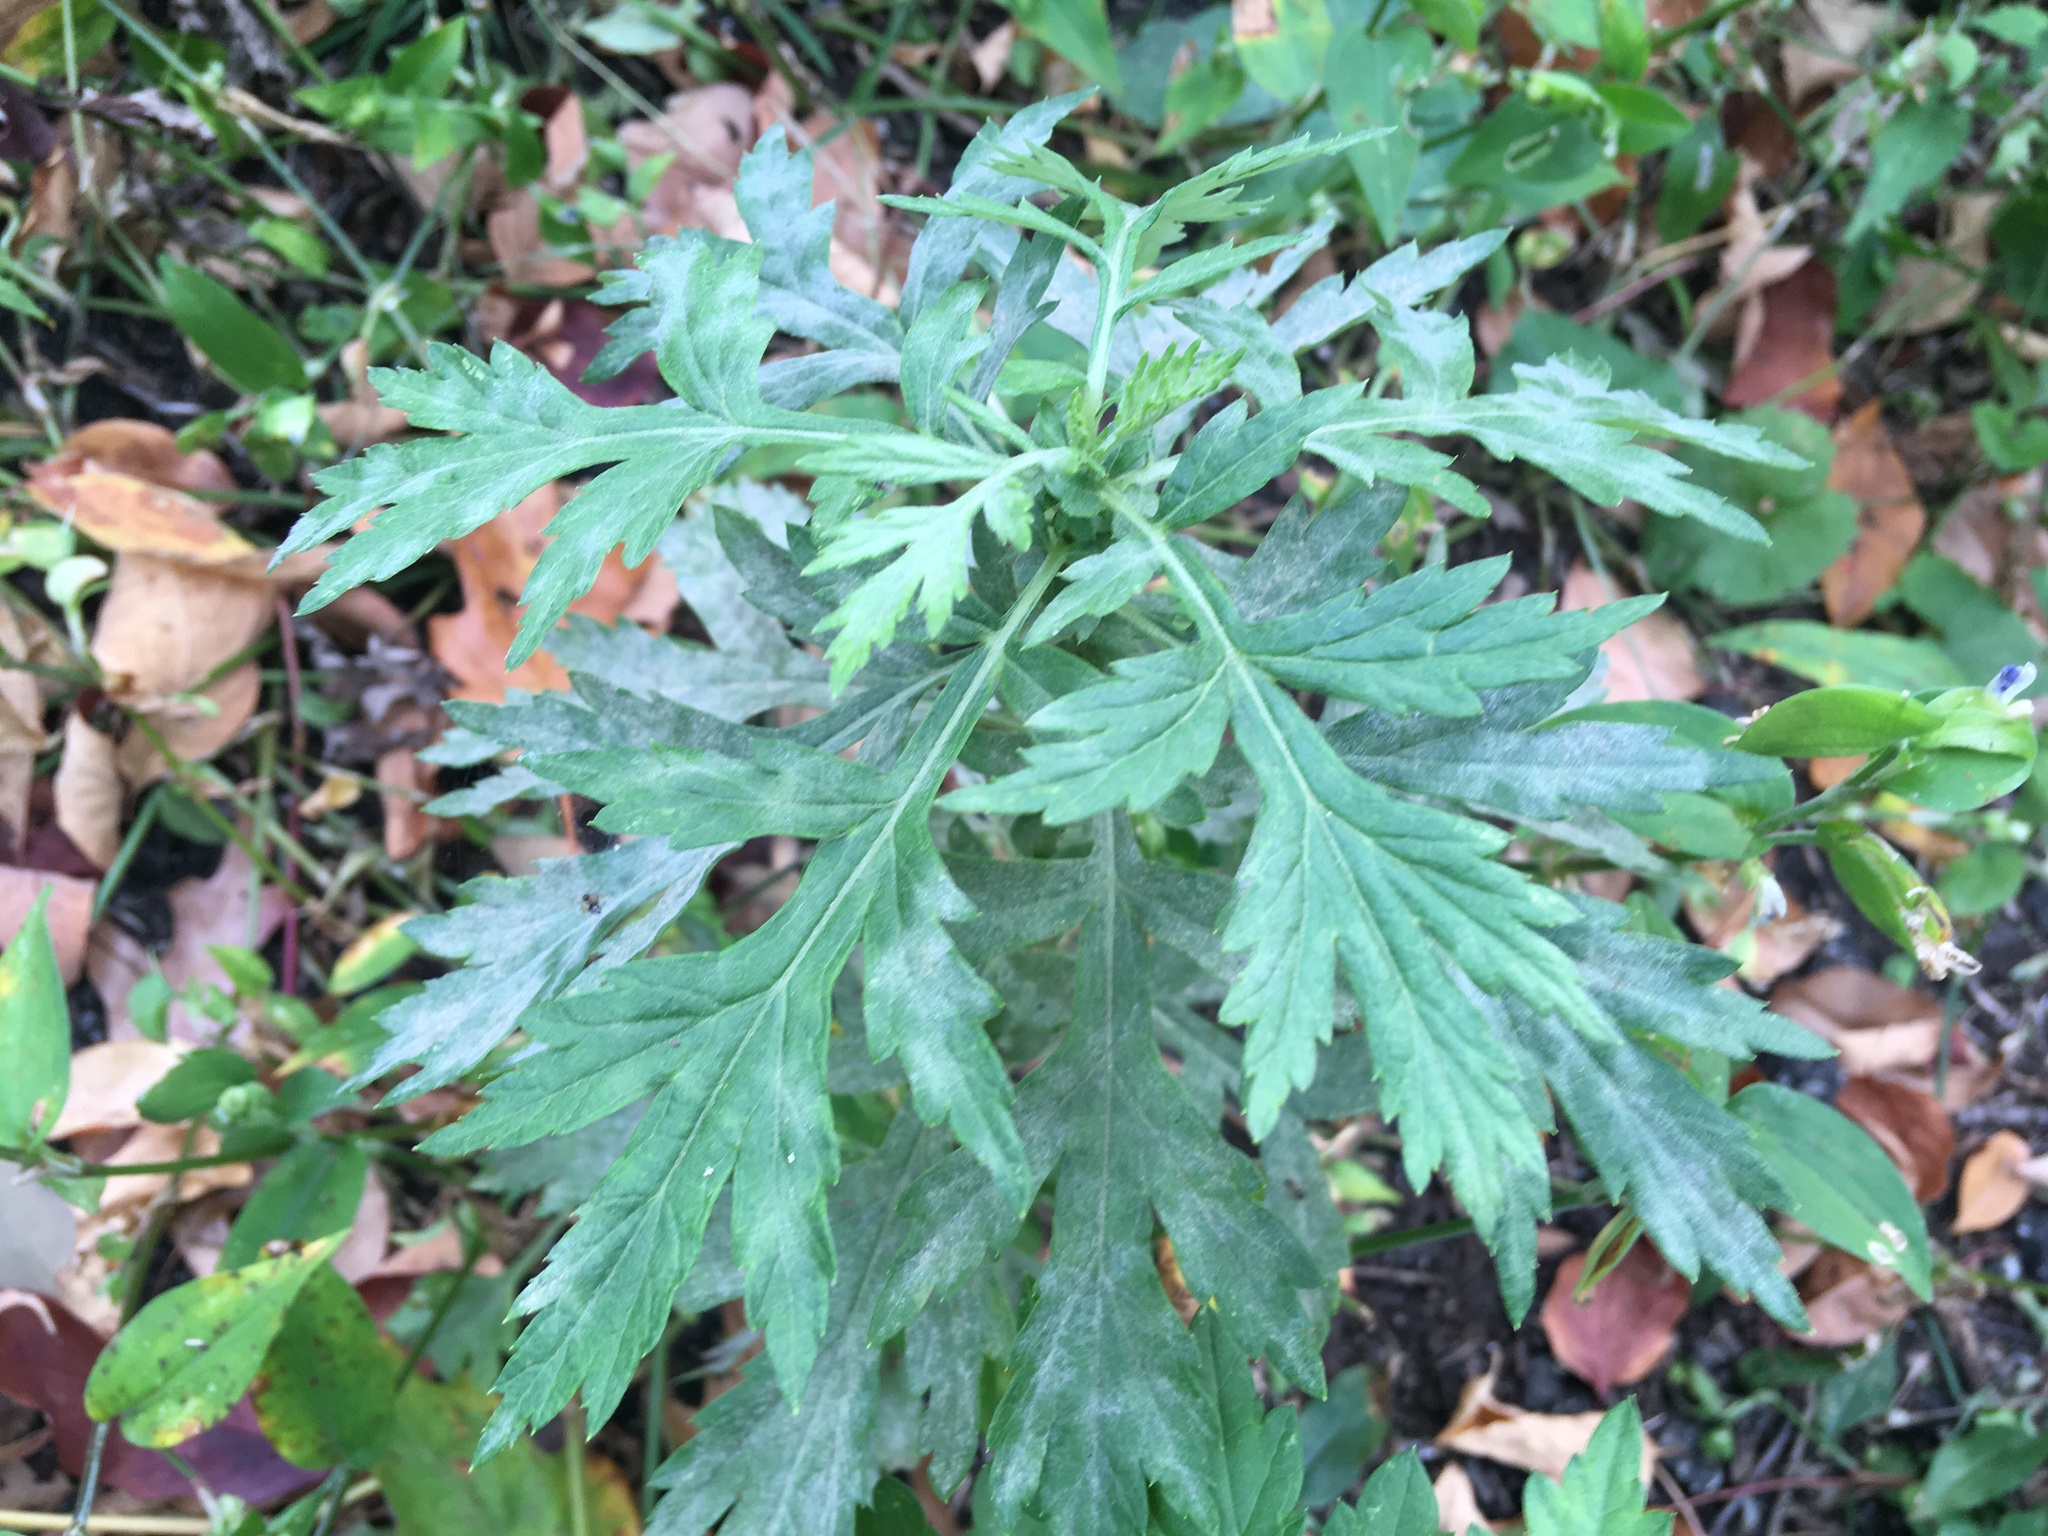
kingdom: Plantae
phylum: Tracheophyta
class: Magnoliopsida
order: Asterales
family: Asteraceae
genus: Artemisia
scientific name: Artemisia vulgaris
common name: Mugwort
